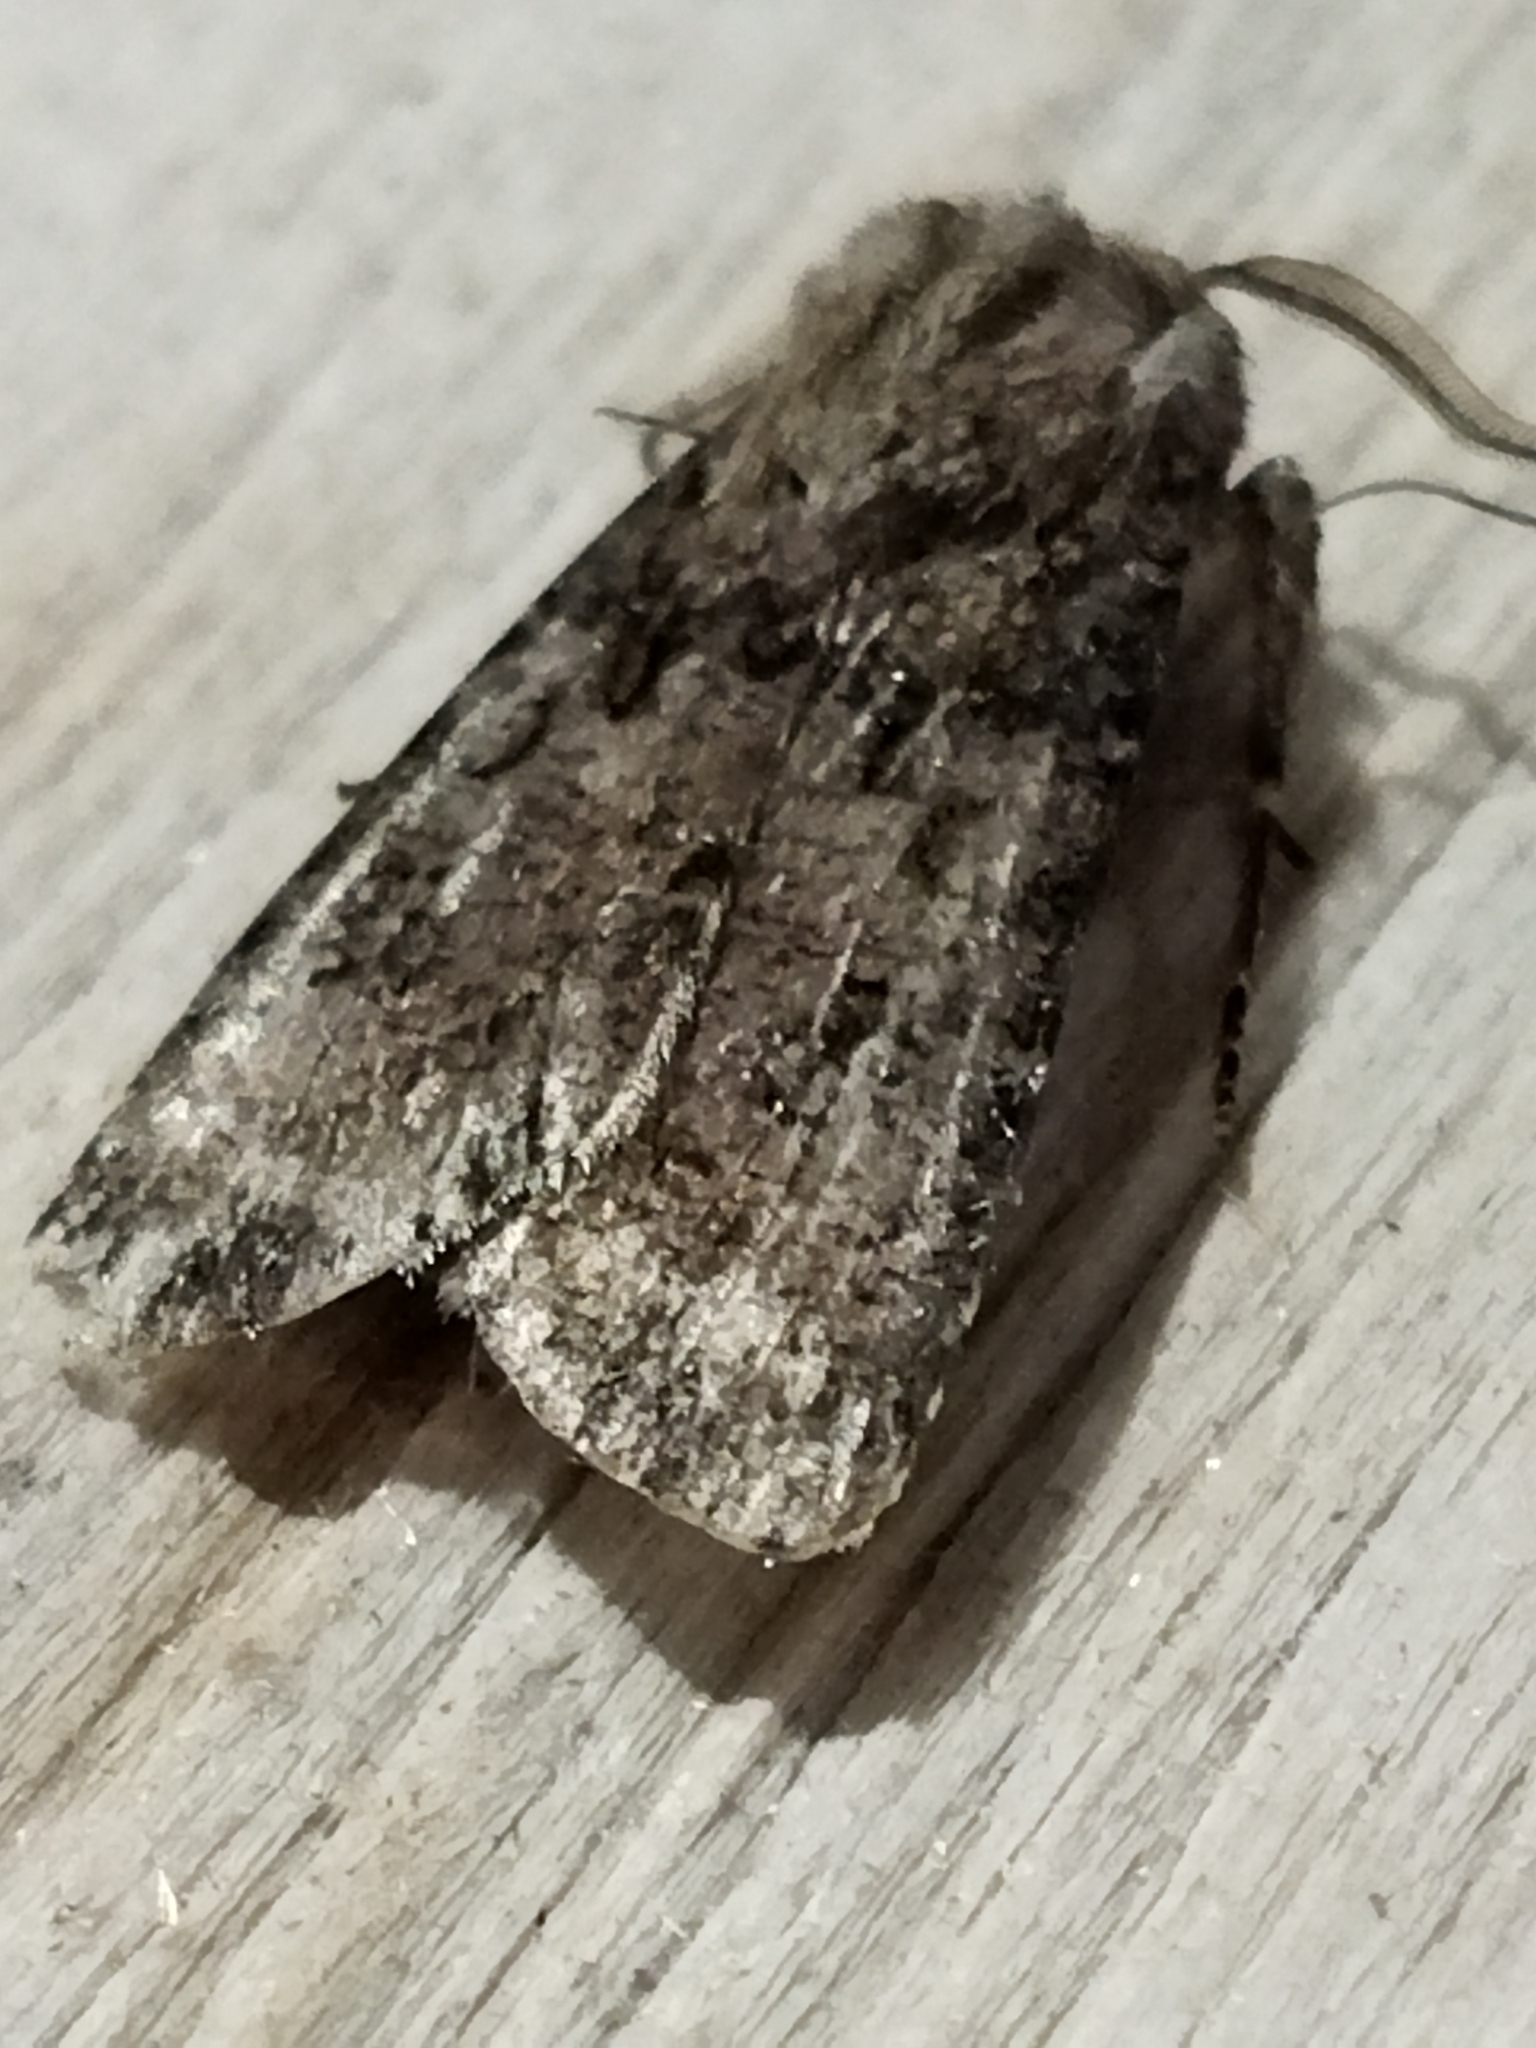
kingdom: Animalia
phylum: Arthropoda
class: Insecta
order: Lepidoptera
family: Noctuidae
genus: Agrotis
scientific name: Agrotis bigramma
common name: Great dart
